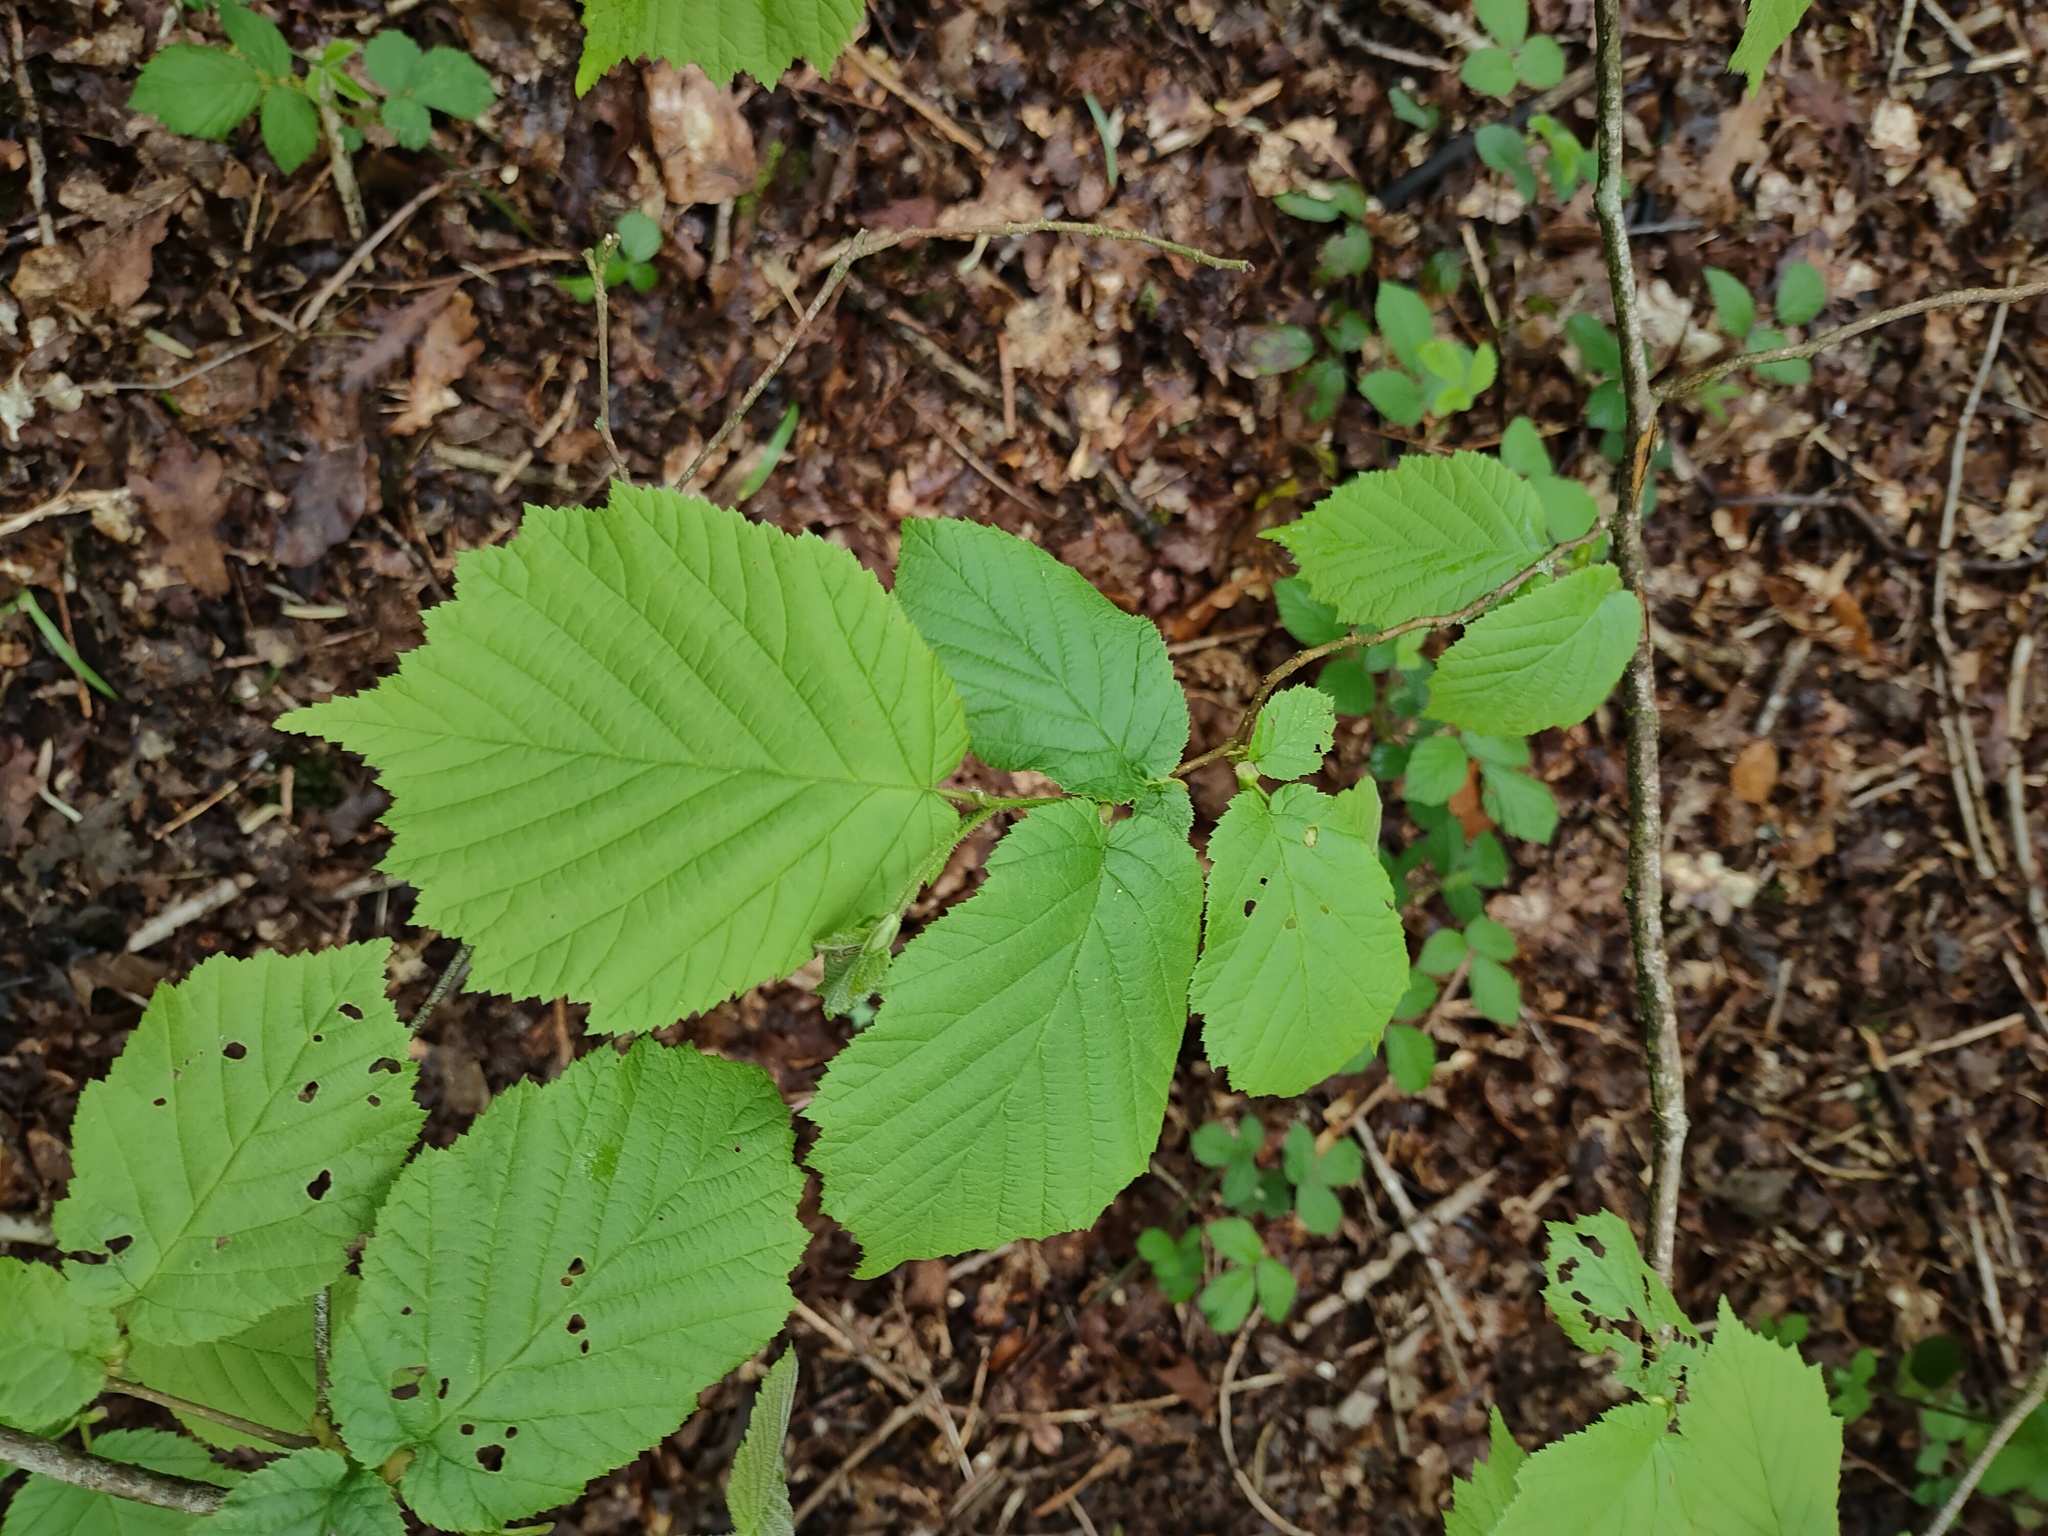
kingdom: Plantae
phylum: Tracheophyta
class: Magnoliopsida
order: Fagales
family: Betulaceae
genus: Corylus
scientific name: Corylus avellana
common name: European hazel
